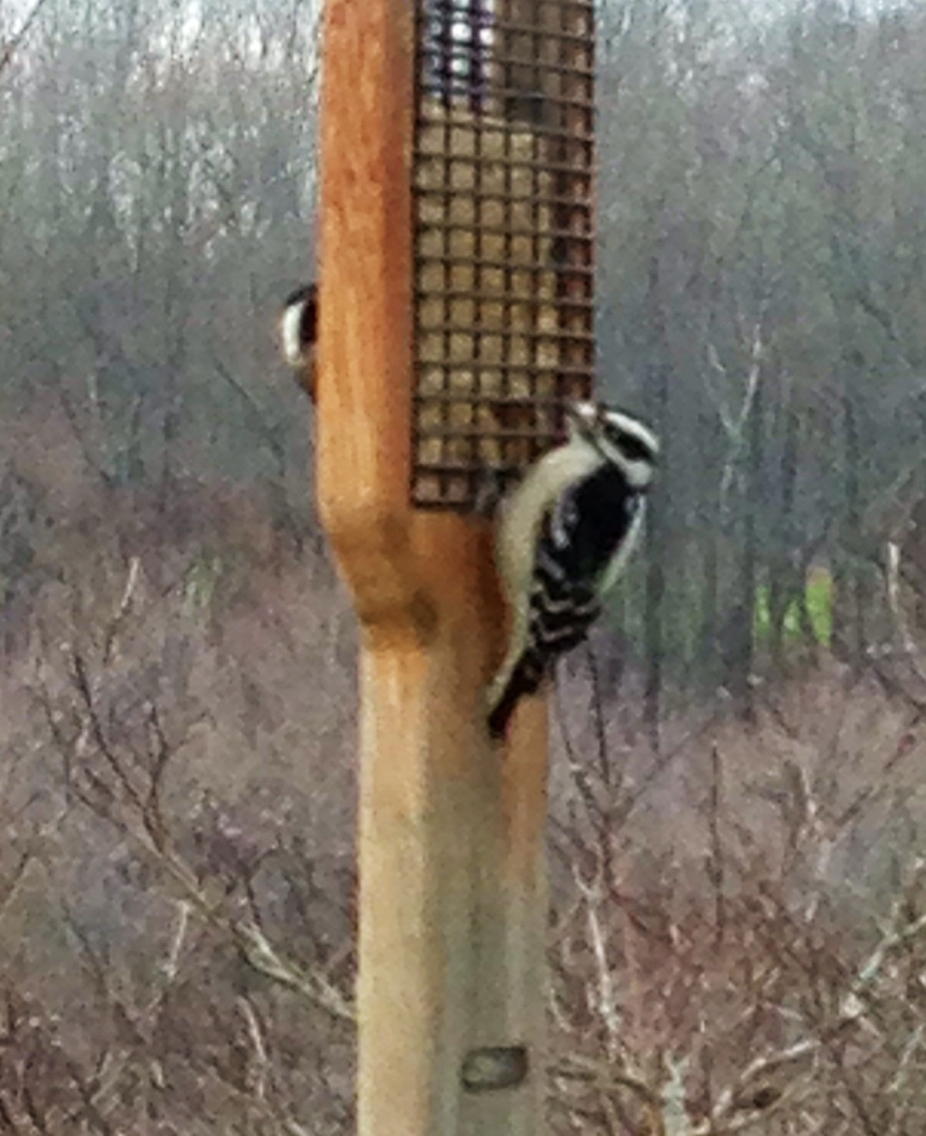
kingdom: Animalia
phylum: Chordata
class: Aves
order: Piciformes
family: Picidae
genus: Dryobates
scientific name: Dryobates pubescens
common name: Downy woodpecker
